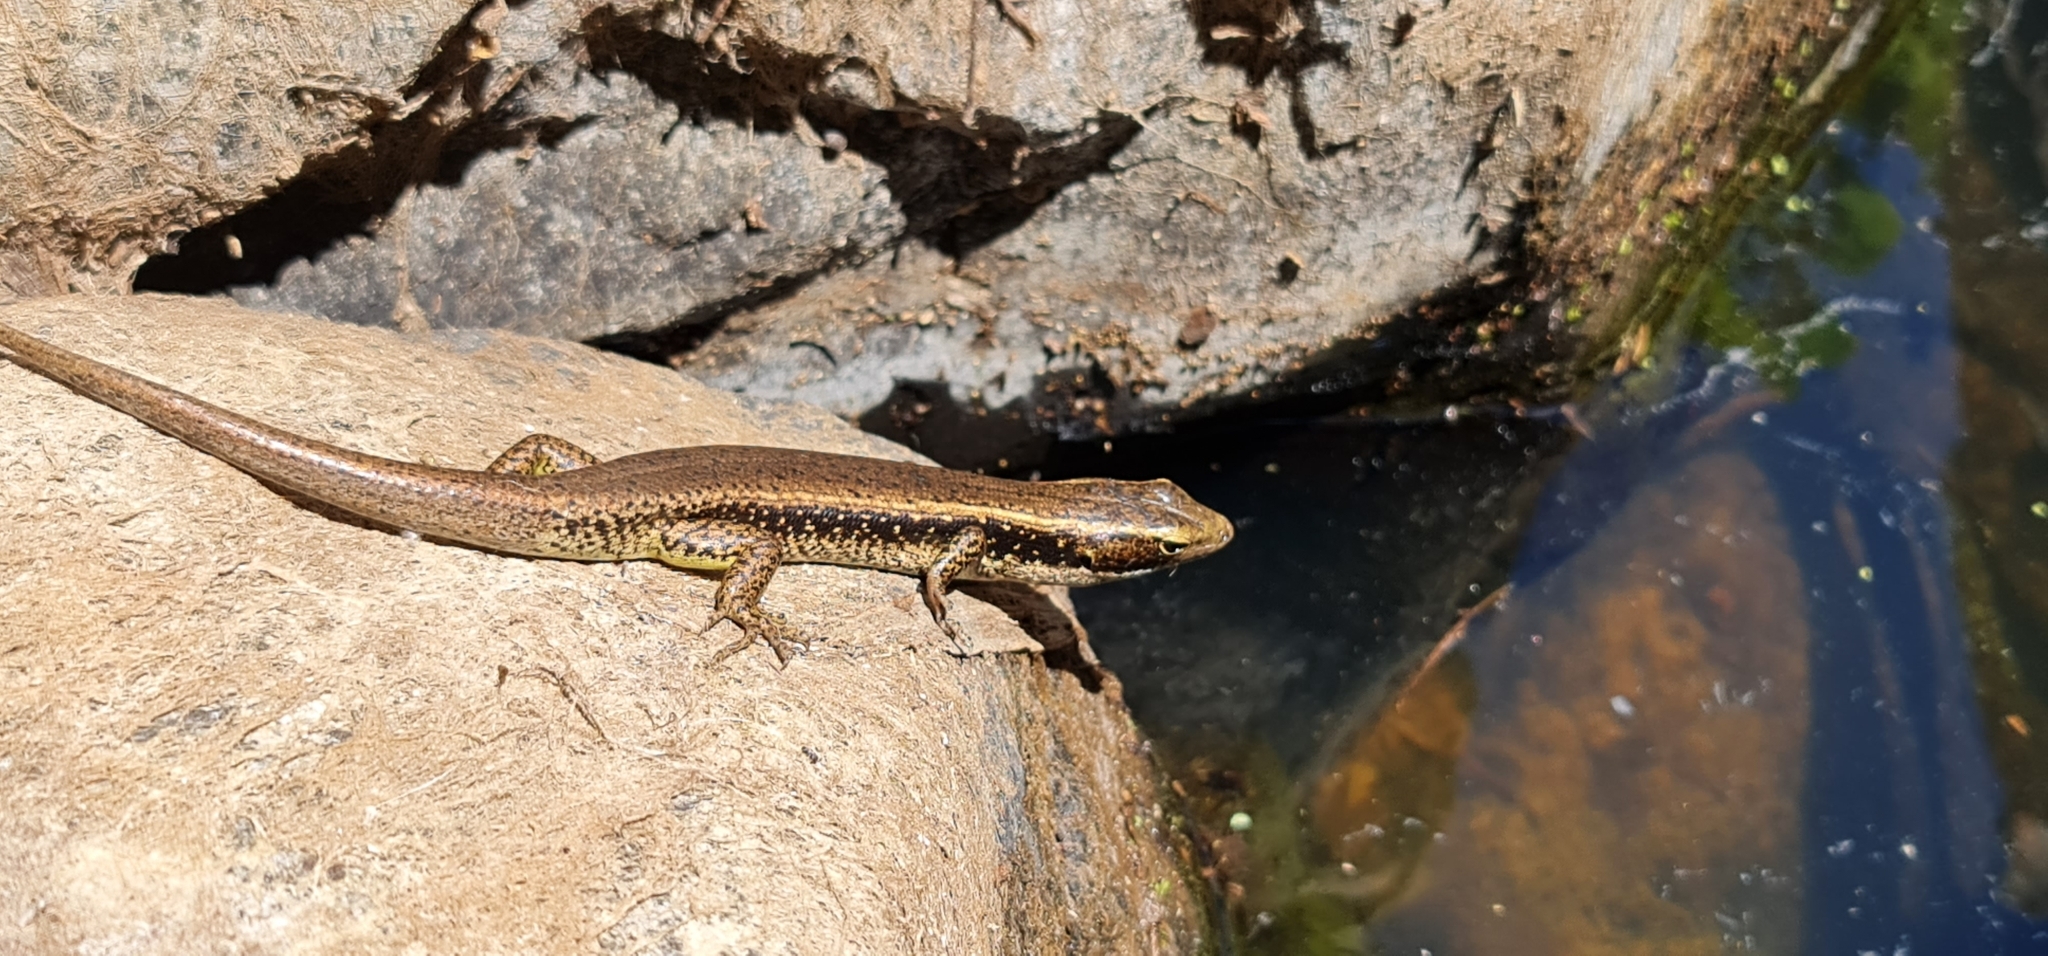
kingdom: Animalia
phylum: Chordata
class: Squamata
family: Scincidae
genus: Eulamprus
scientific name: Eulamprus quoyii
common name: Eastern water skink
